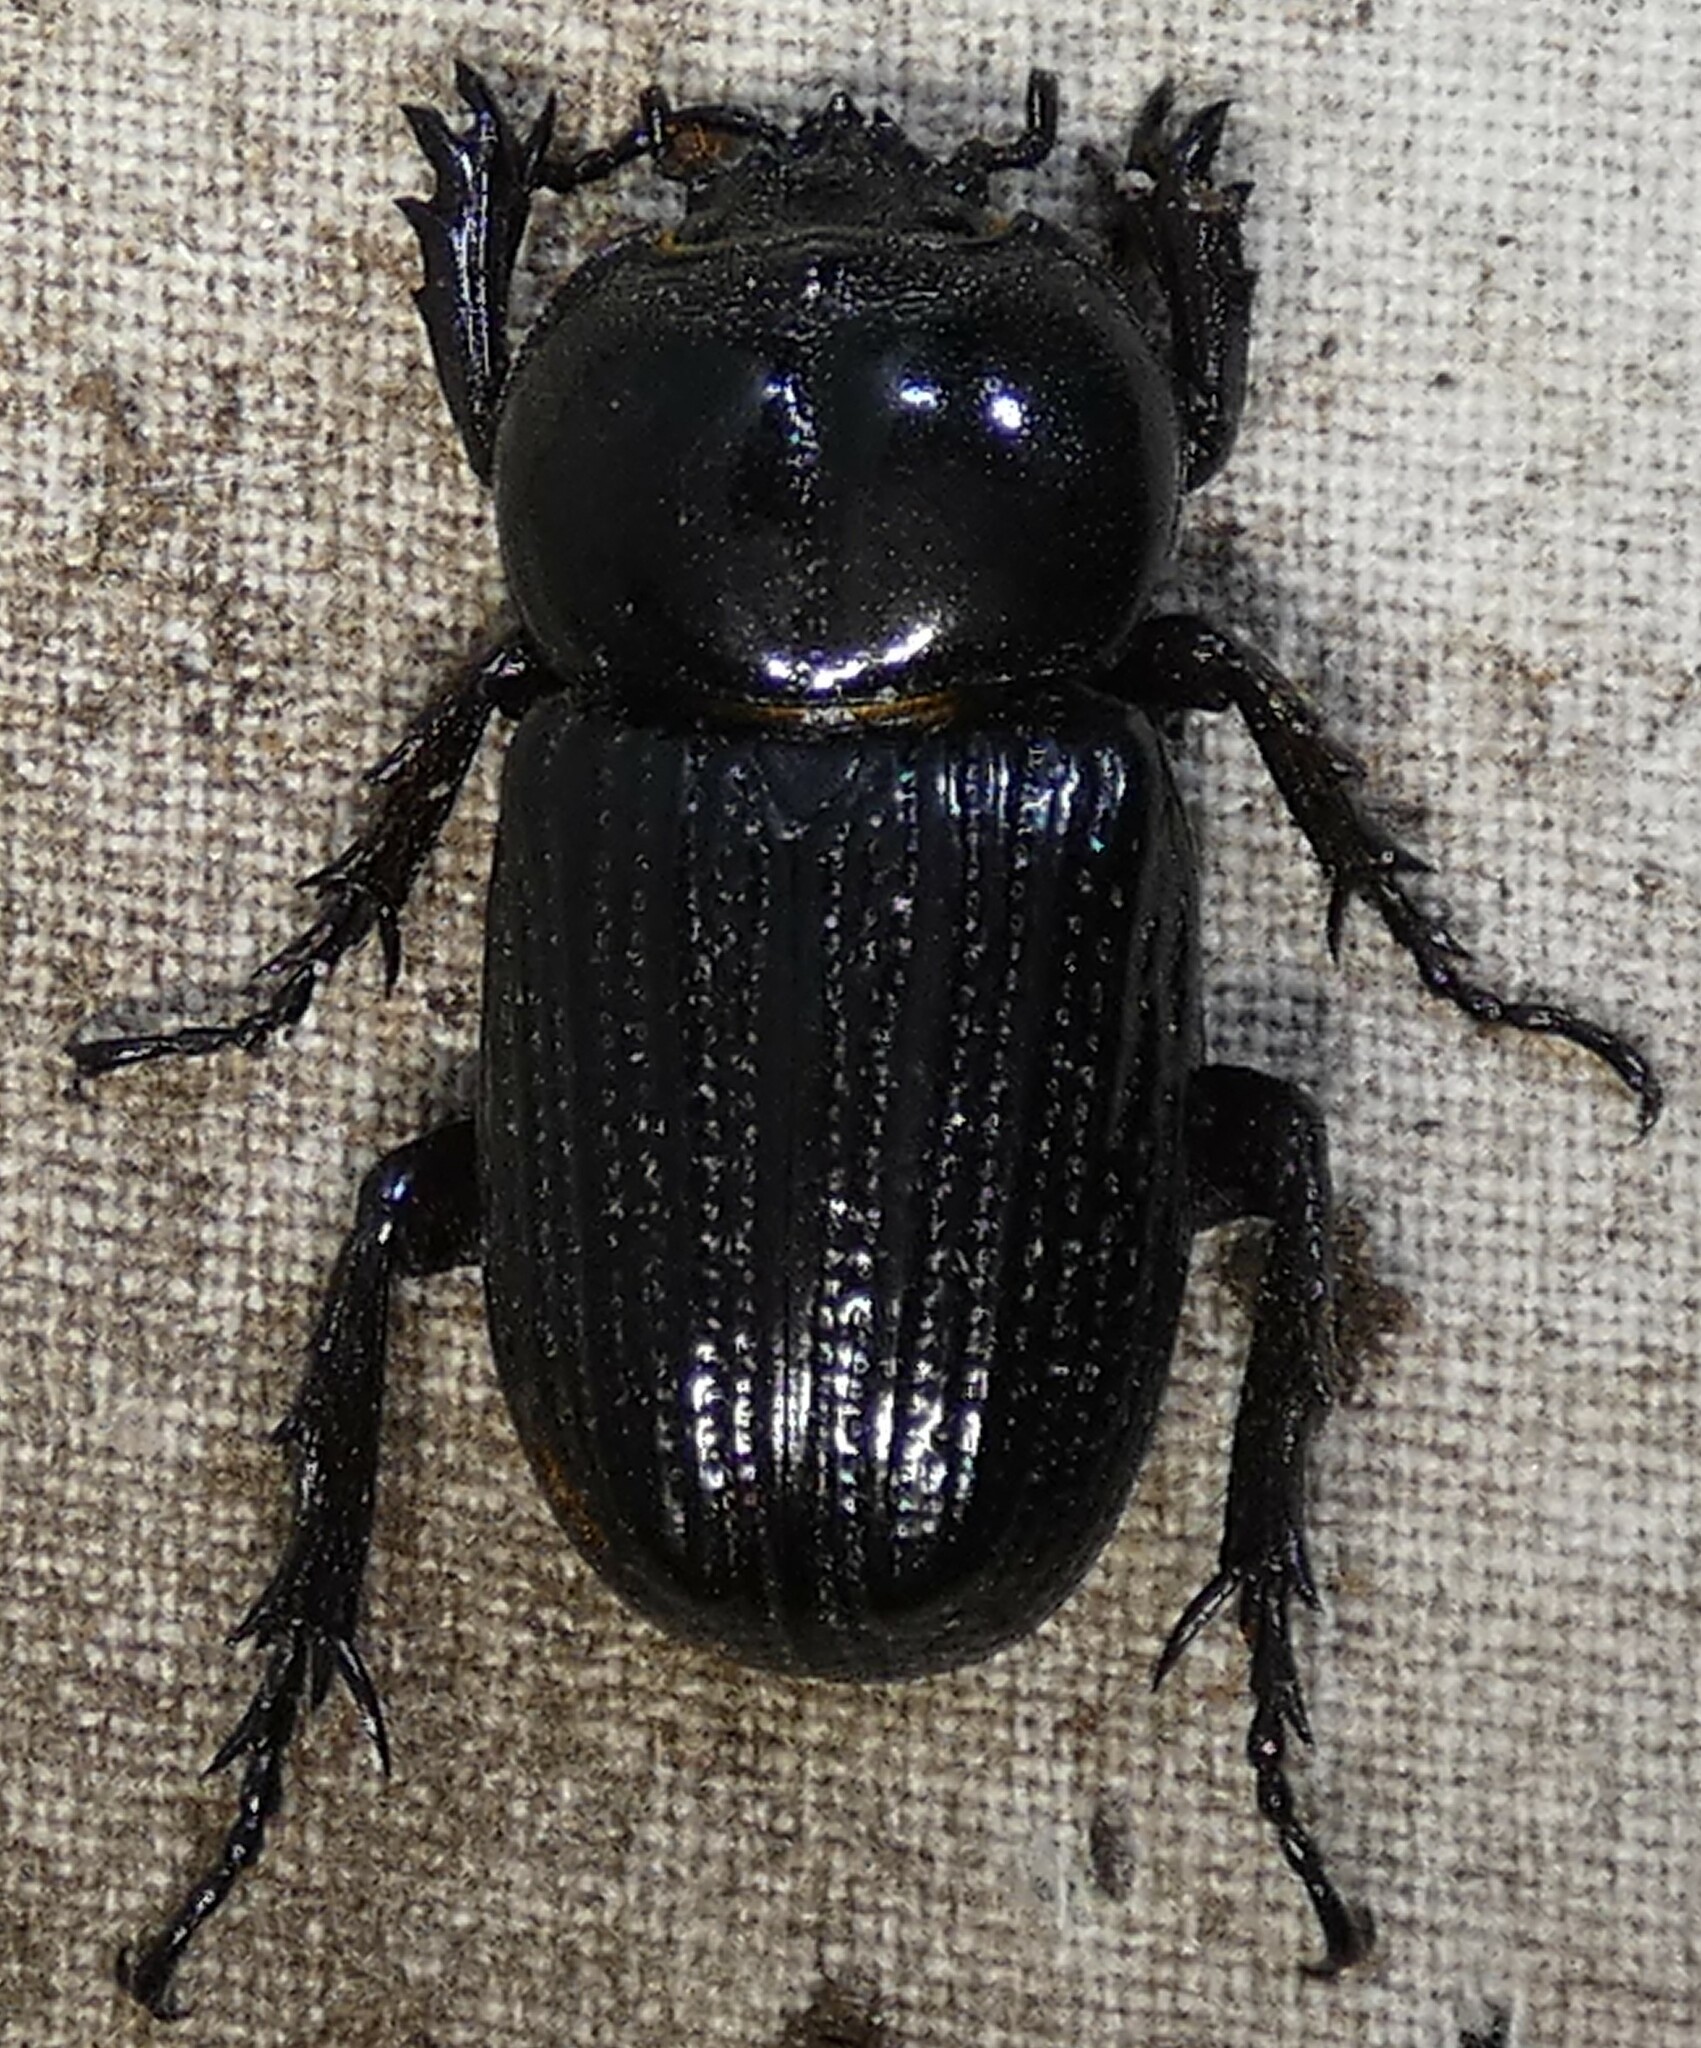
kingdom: Animalia
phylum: Arthropoda
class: Insecta
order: Coleoptera
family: Scarabaeidae
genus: Phileurus
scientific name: Phileurus valgus
